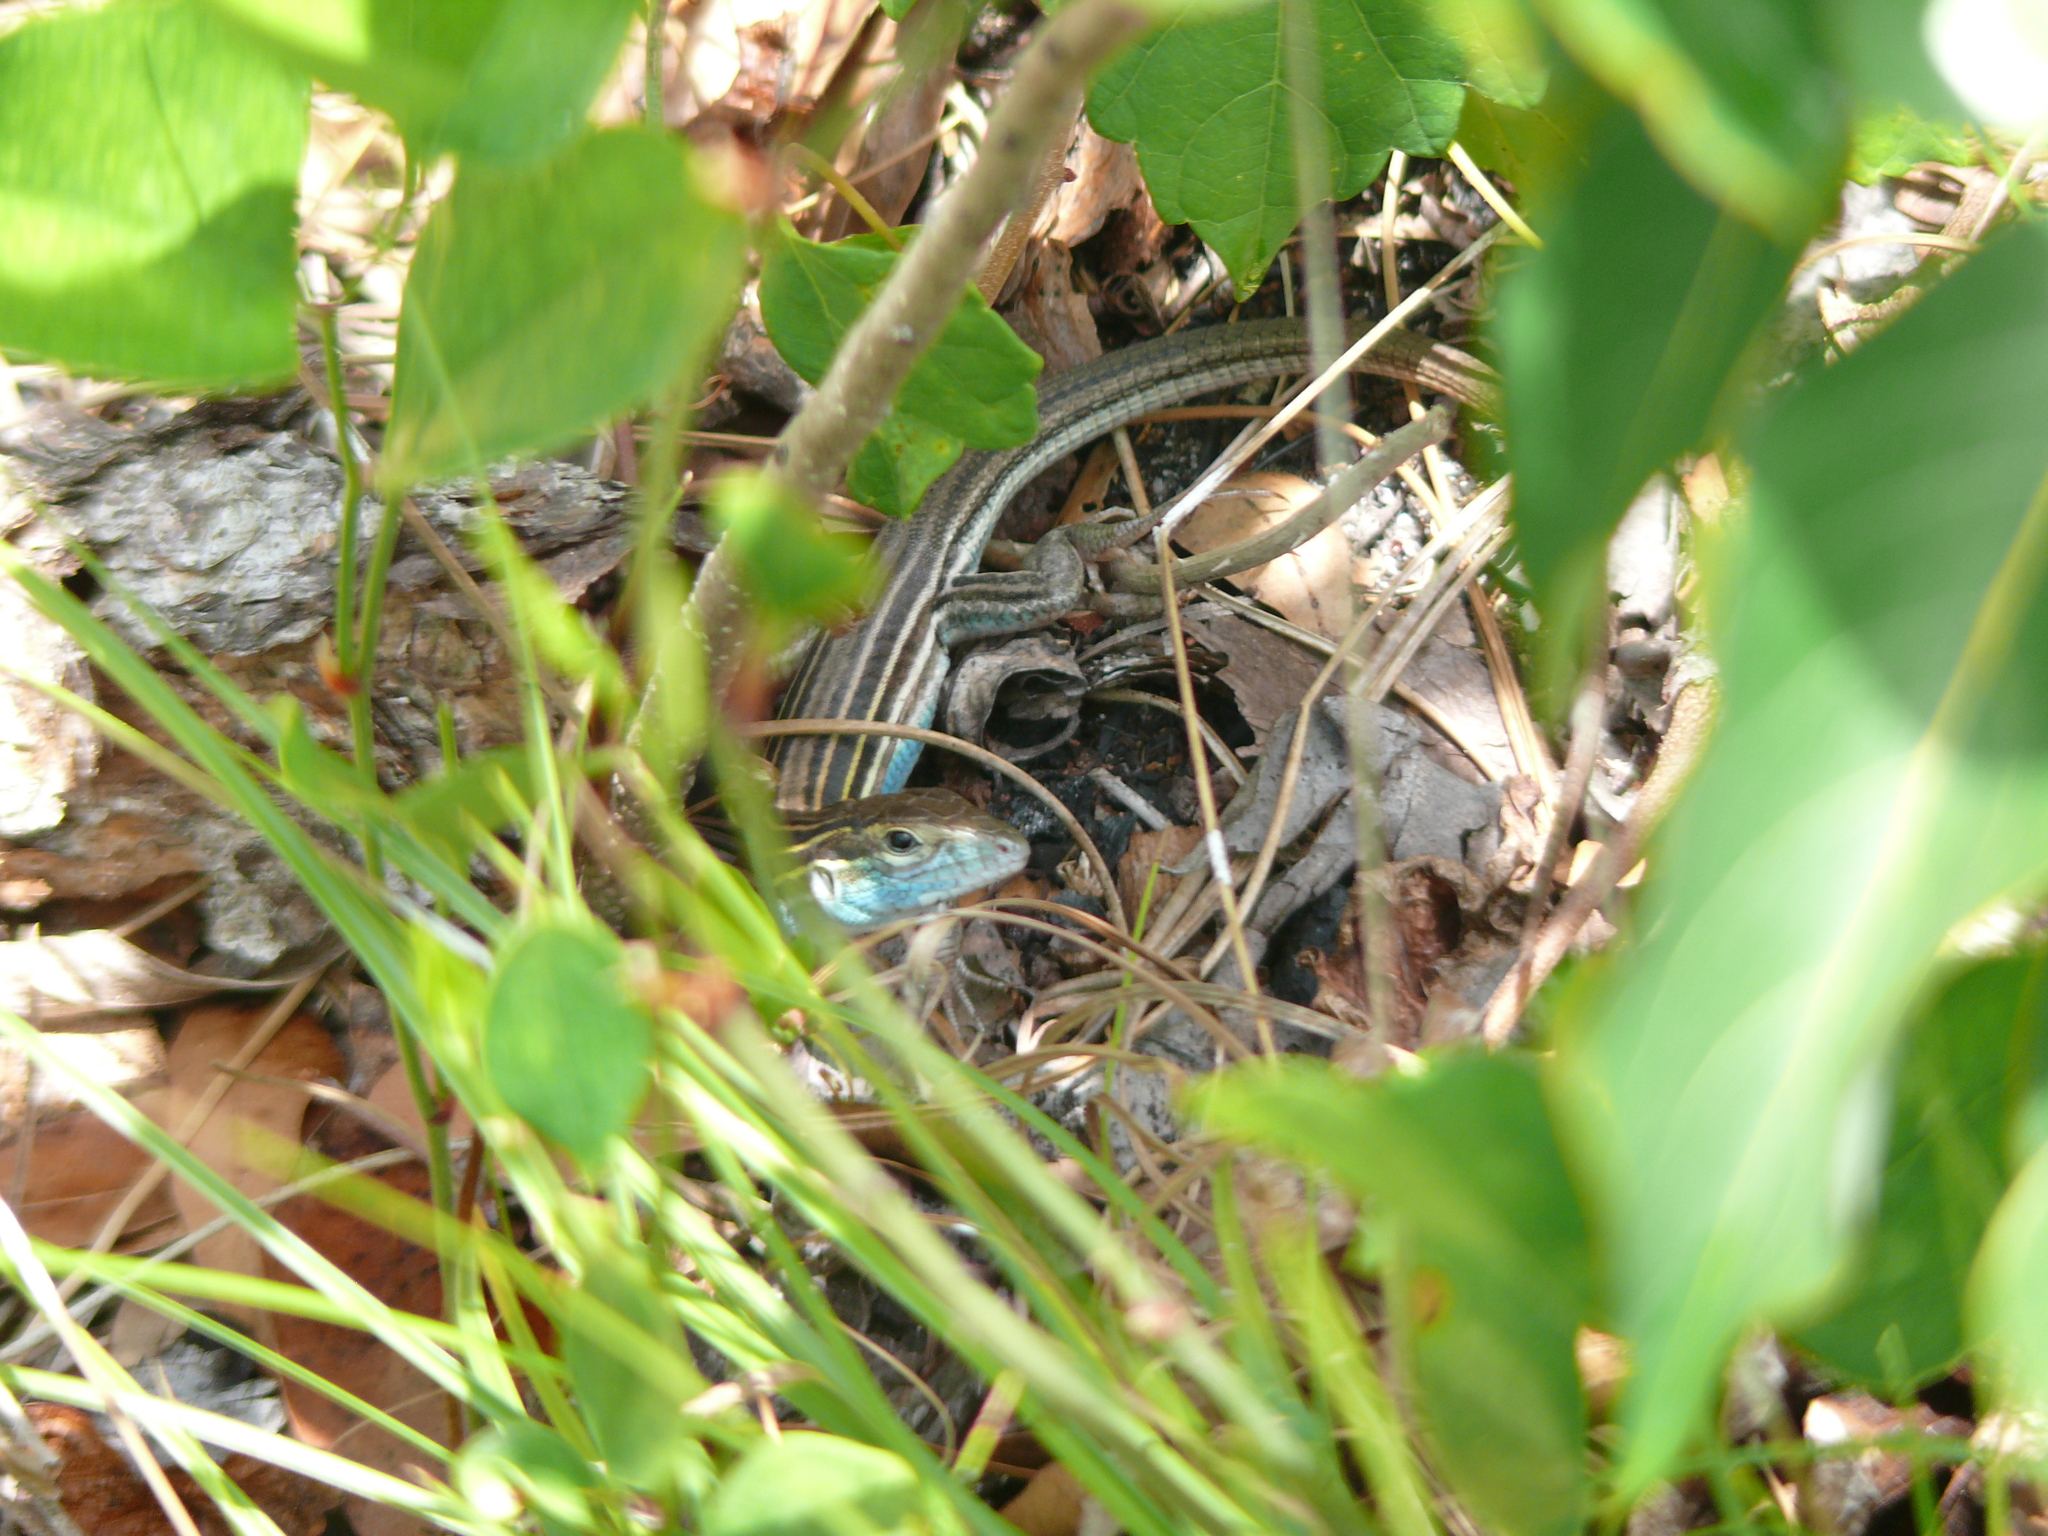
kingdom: Animalia
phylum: Chordata
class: Squamata
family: Teiidae
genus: Aspidoscelis
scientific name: Aspidoscelis sexlineatus
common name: Six-lined racerunner
